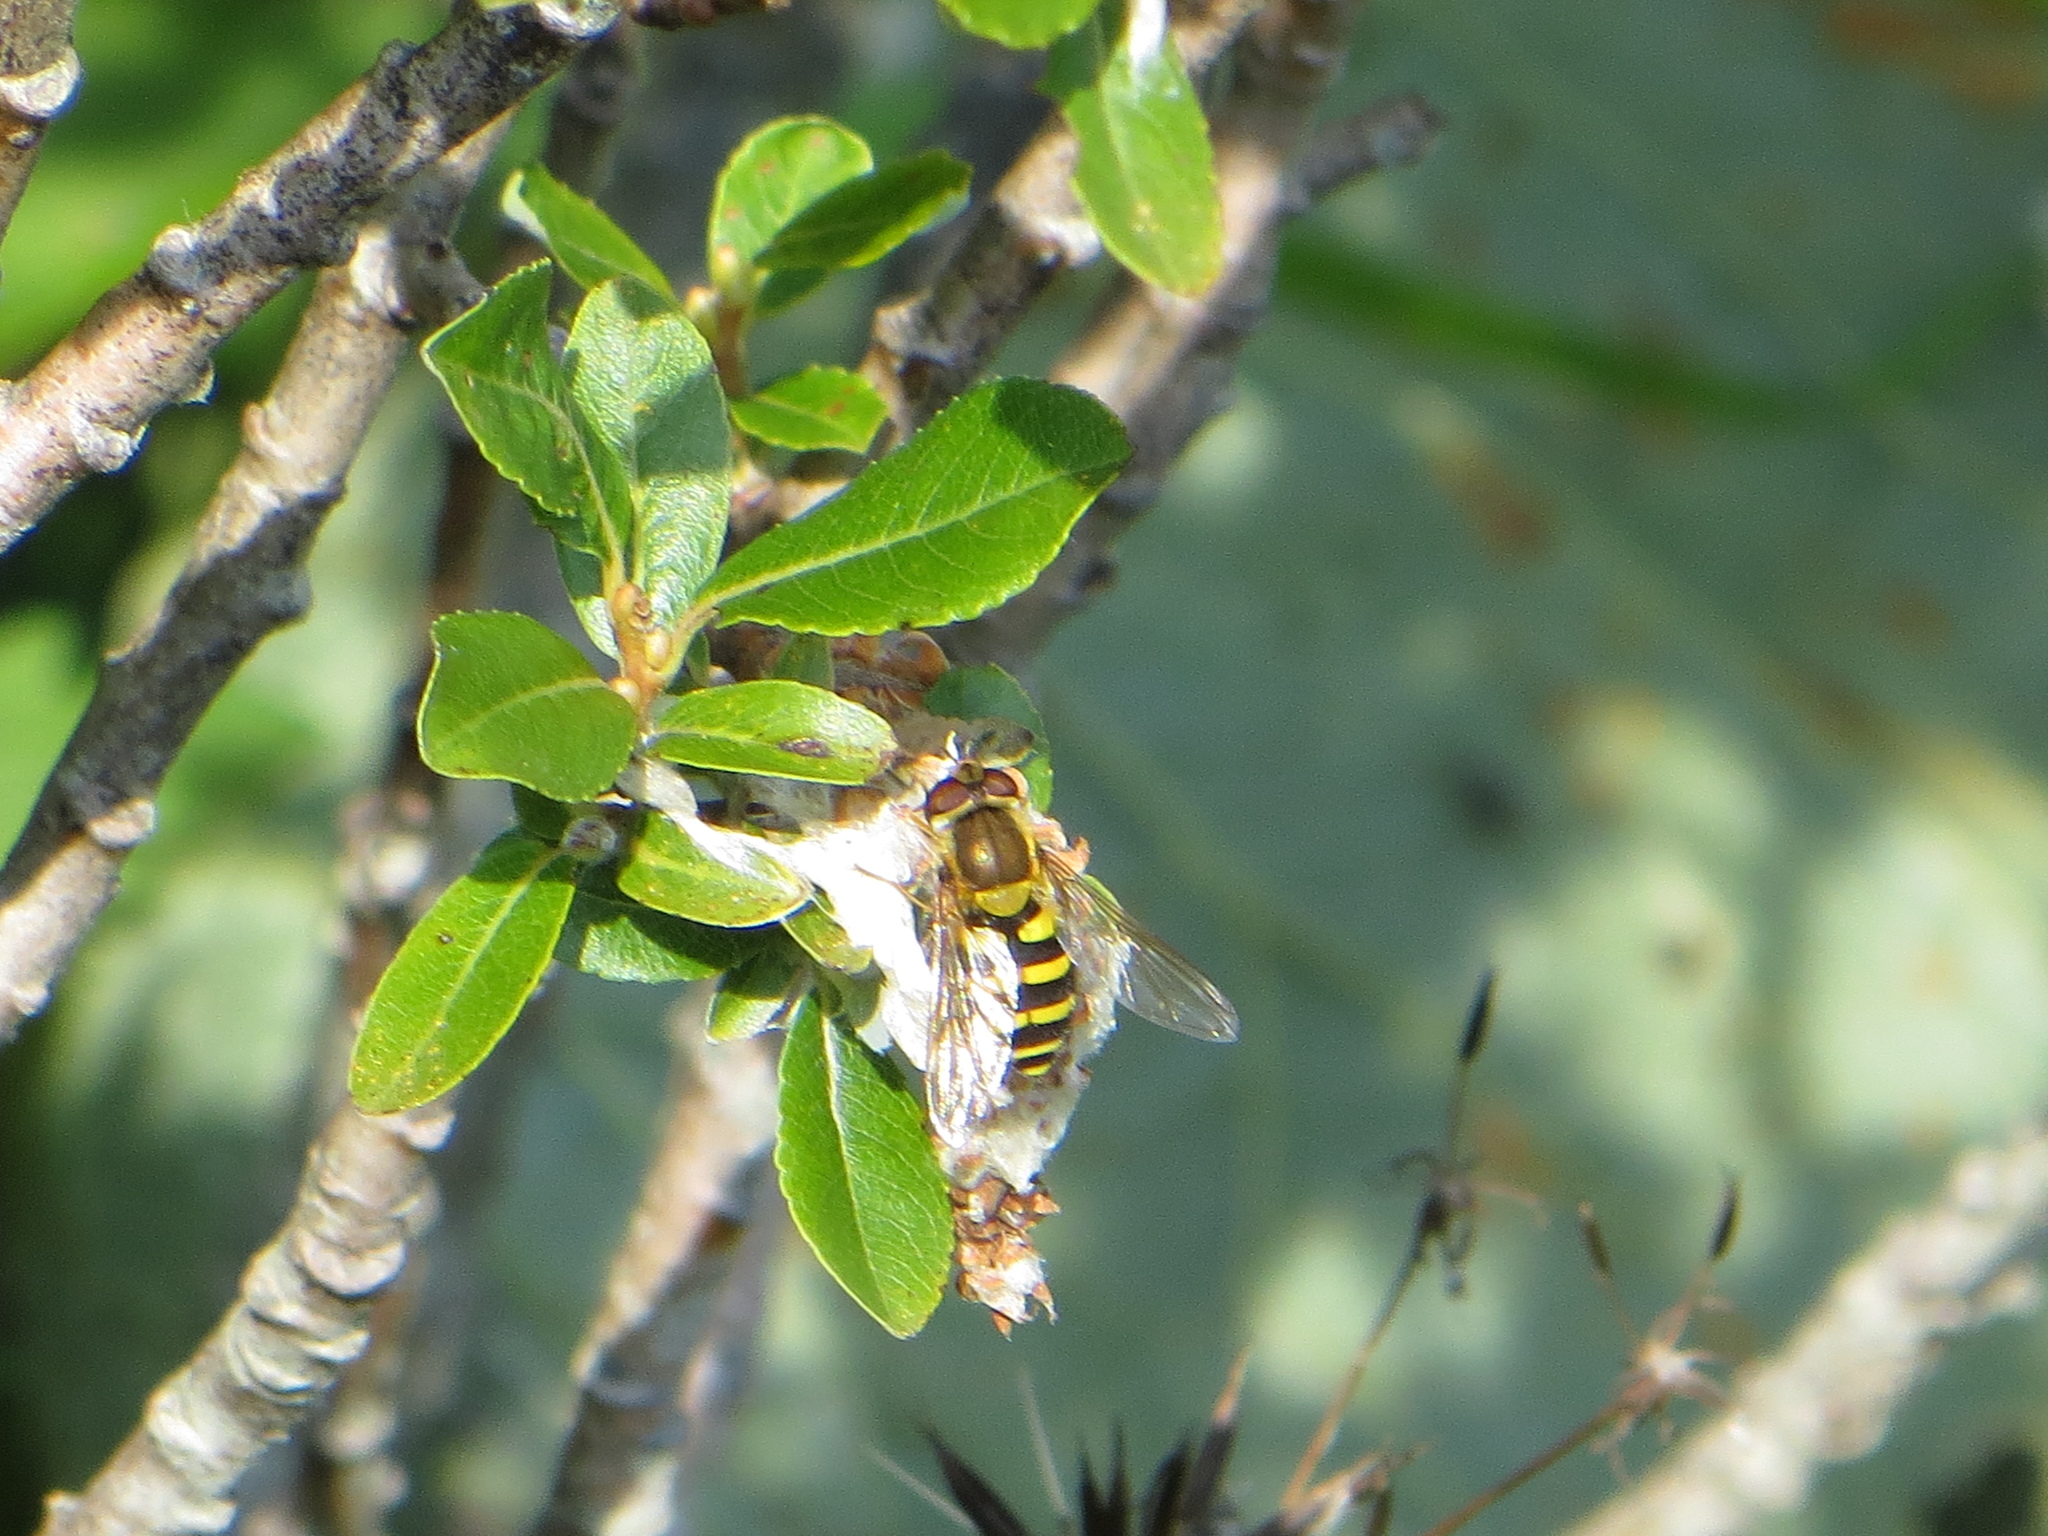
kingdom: Animalia
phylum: Arthropoda
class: Insecta
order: Diptera
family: Syrphidae
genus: Syrphus
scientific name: Syrphus
